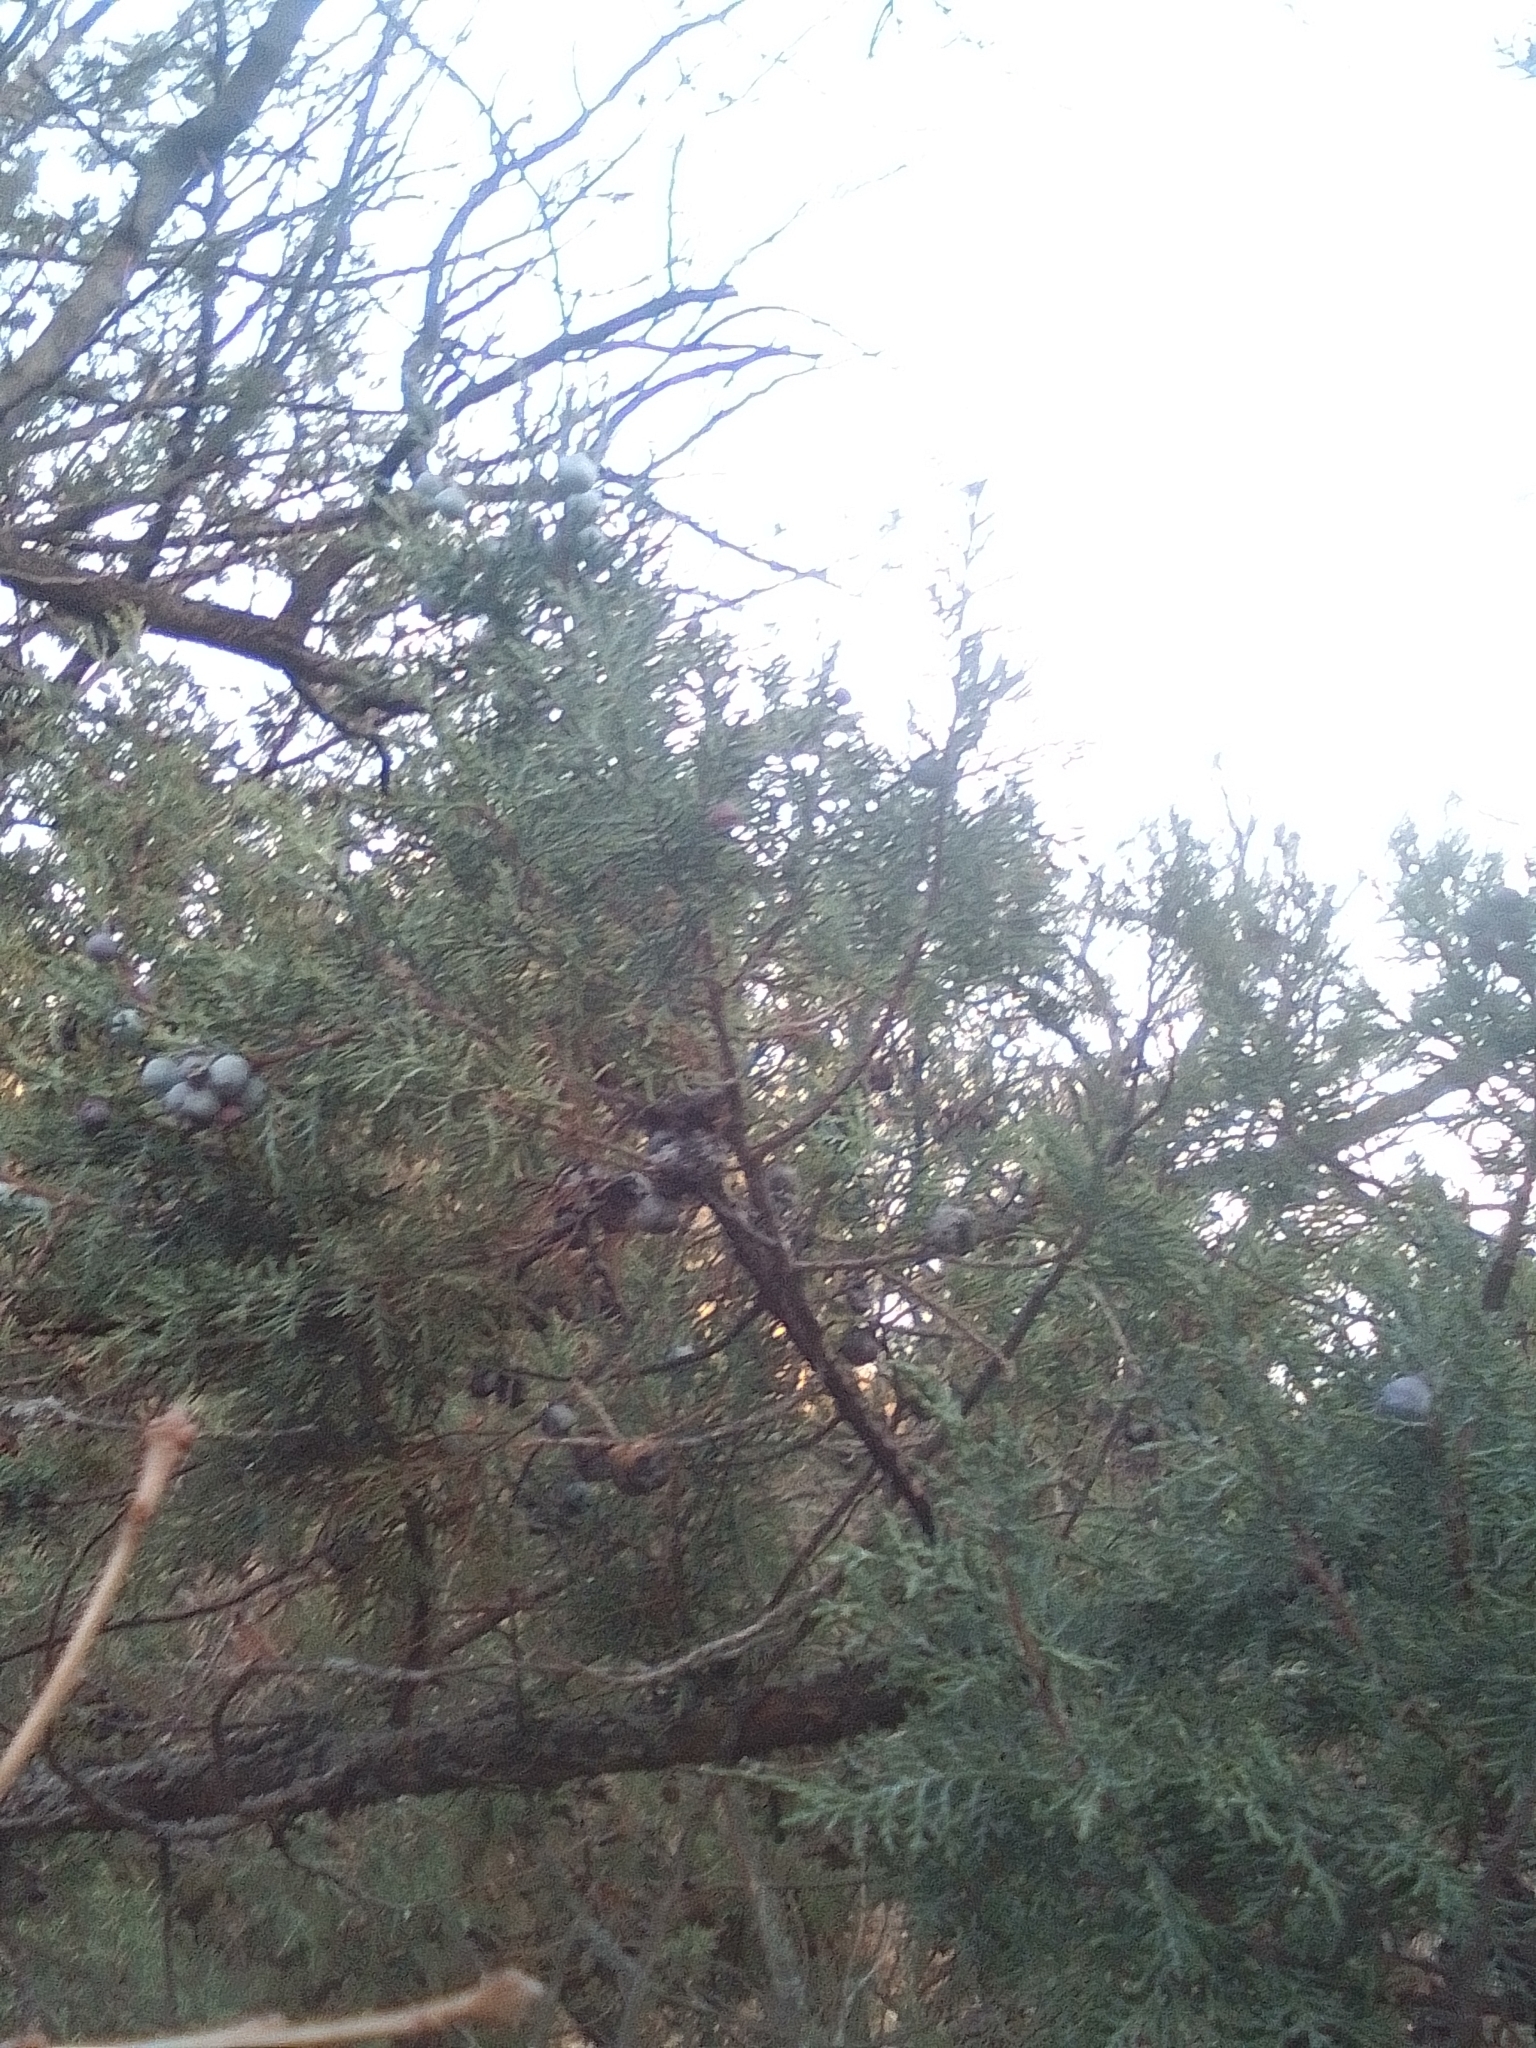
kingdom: Plantae
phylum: Tracheophyta
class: Pinopsida
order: Pinales
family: Cupressaceae
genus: Juniperus
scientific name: Juniperus excelsa
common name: Crimean juniper
